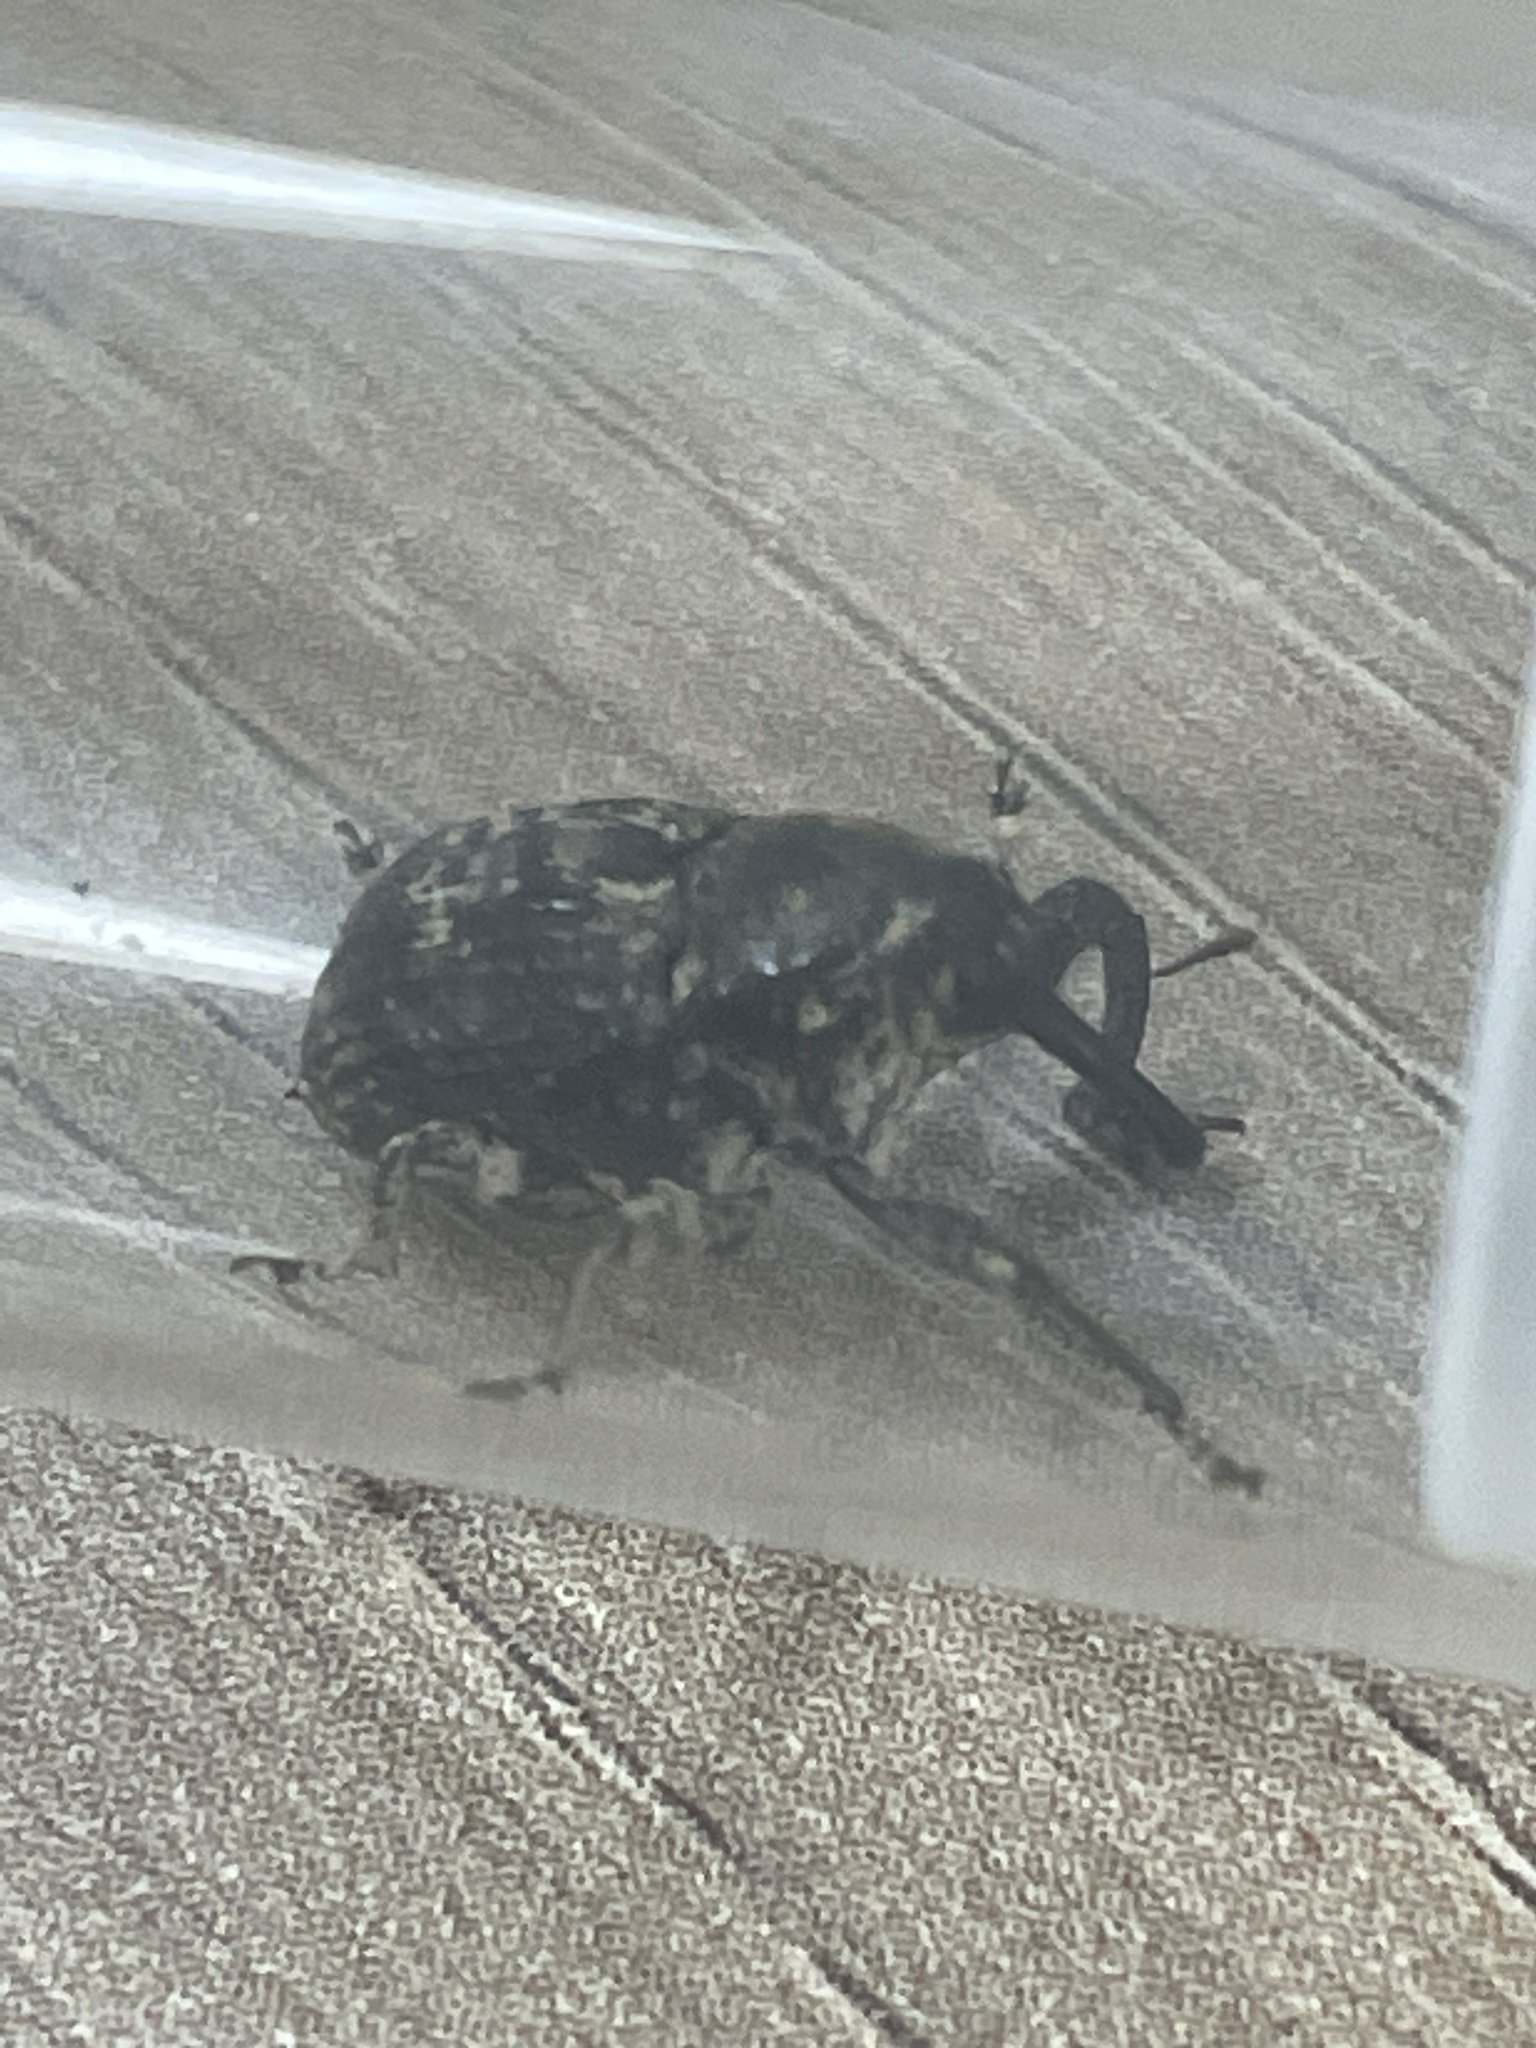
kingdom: Animalia
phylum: Arthropoda
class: Insecta
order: Coleoptera
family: Curculionidae
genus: Eutyrhinus
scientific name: Eutyrhinus meditabundus
